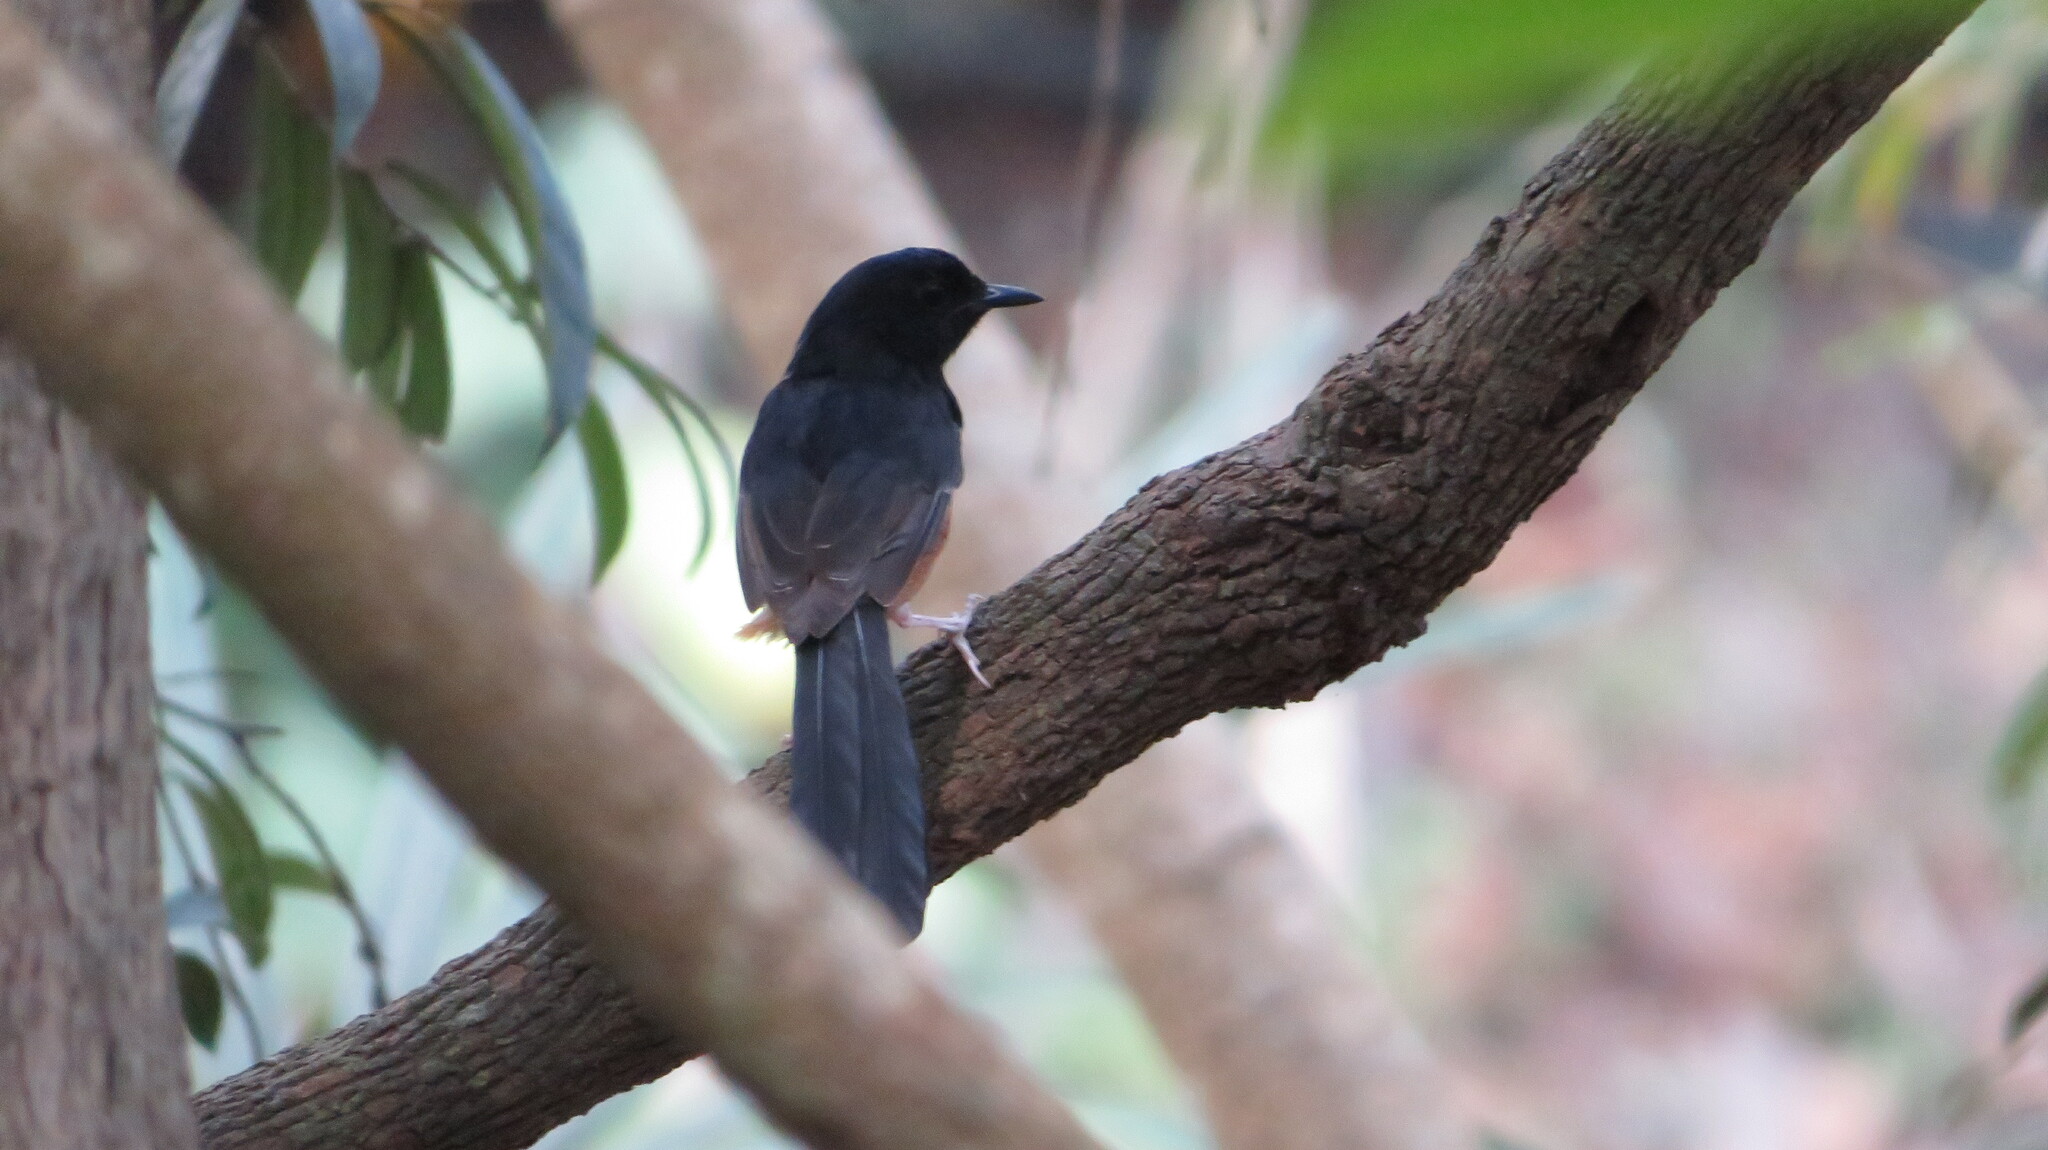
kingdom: Animalia
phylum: Chordata
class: Aves
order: Passeriformes
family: Muscicapidae
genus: Copsychus
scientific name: Copsychus malabaricus
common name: White-rumped shama
